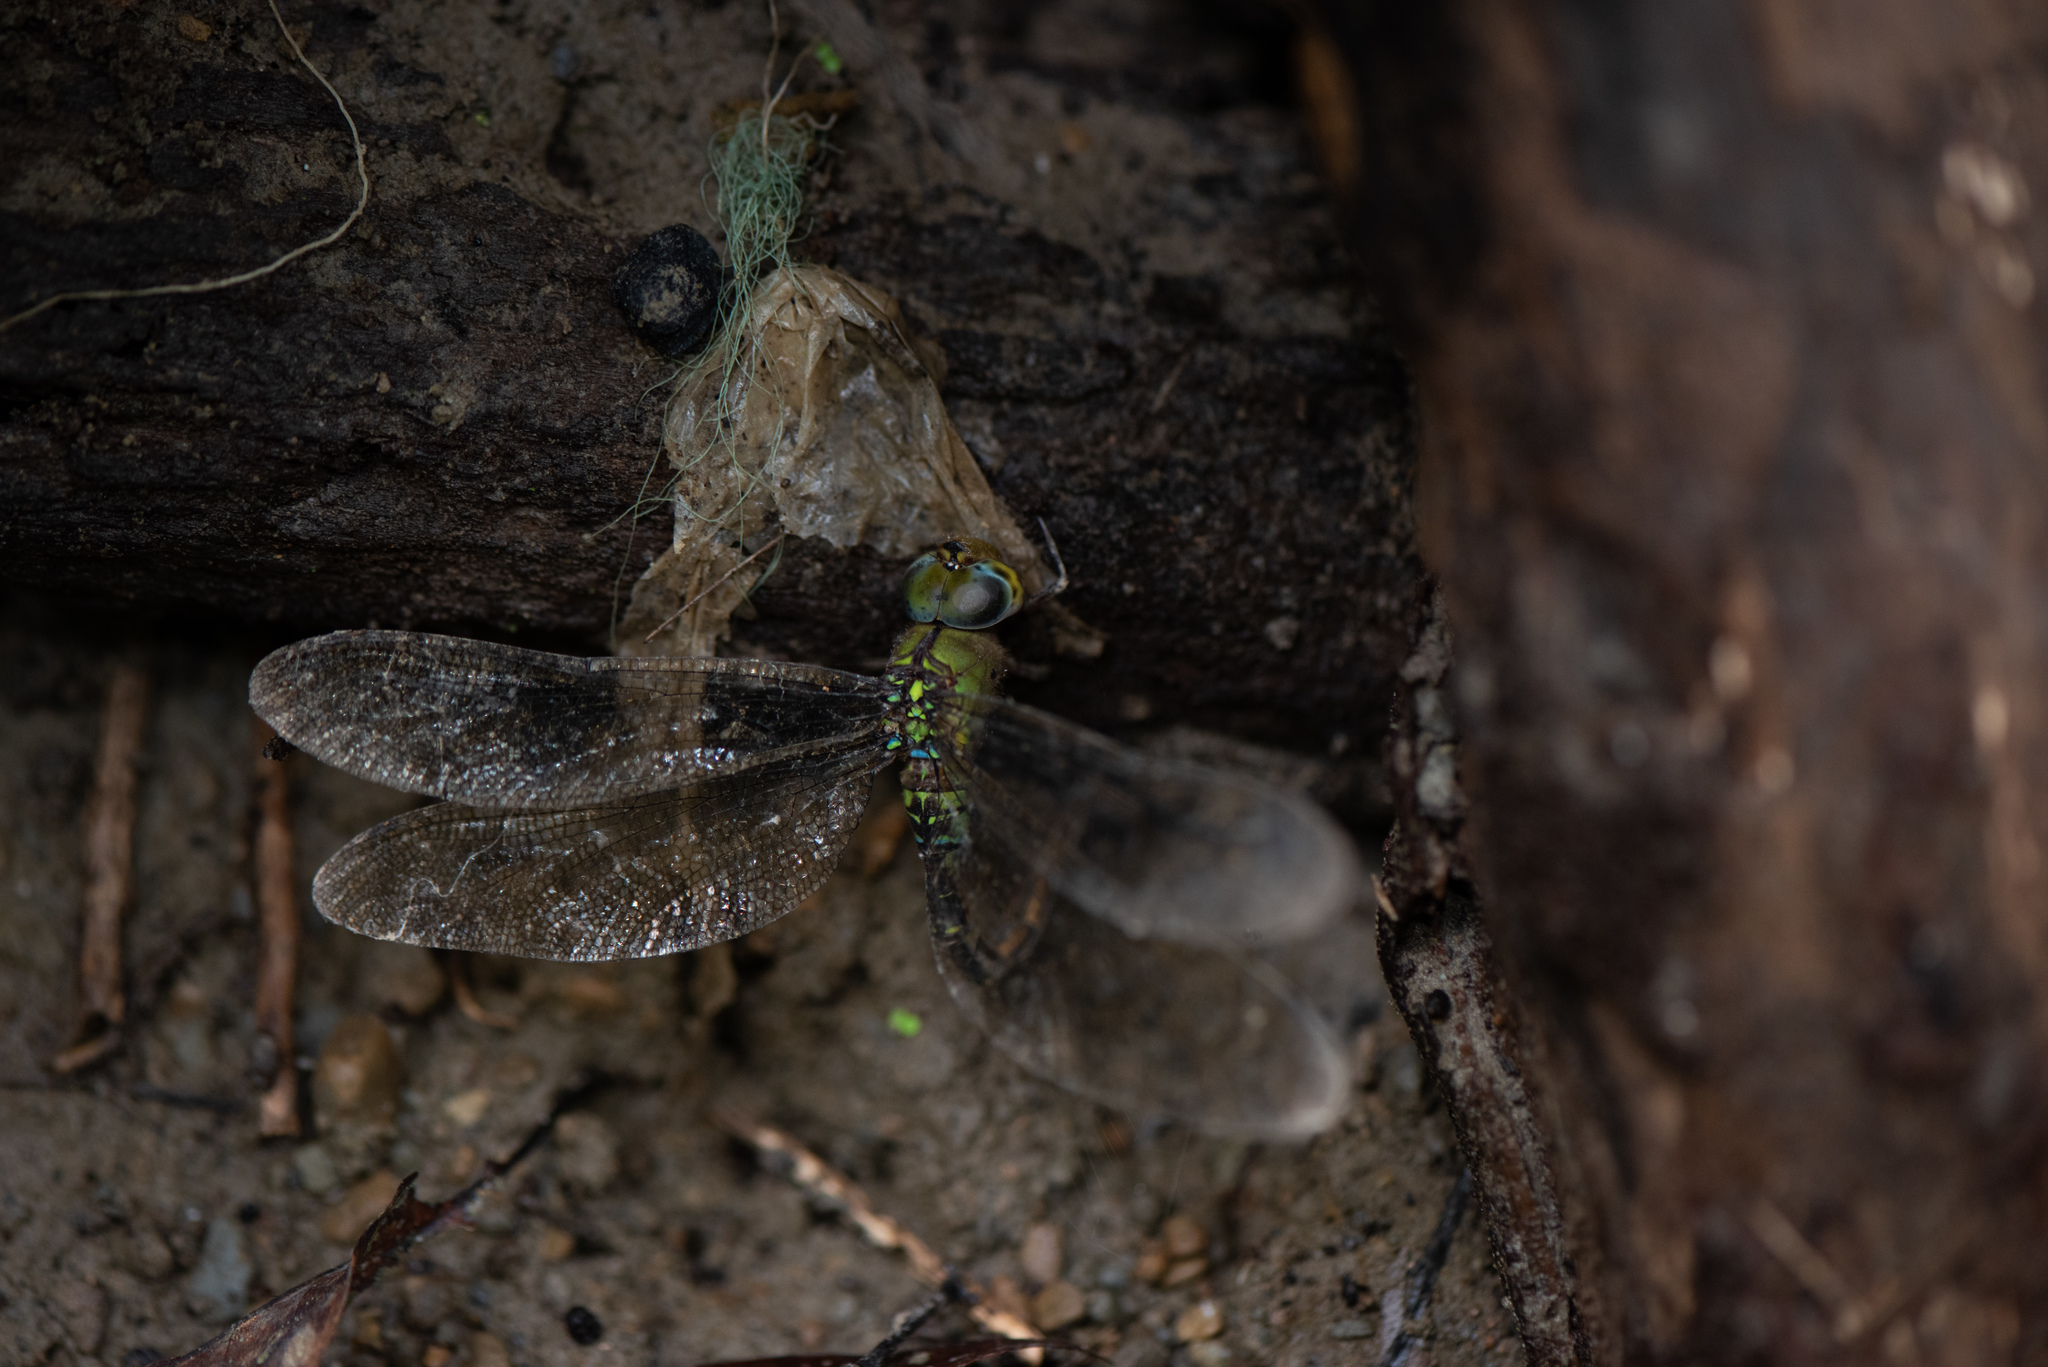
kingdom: Animalia
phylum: Arthropoda
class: Insecta
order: Odonata
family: Aeshnidae
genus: Gynacantha
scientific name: Gynacantha japonica
